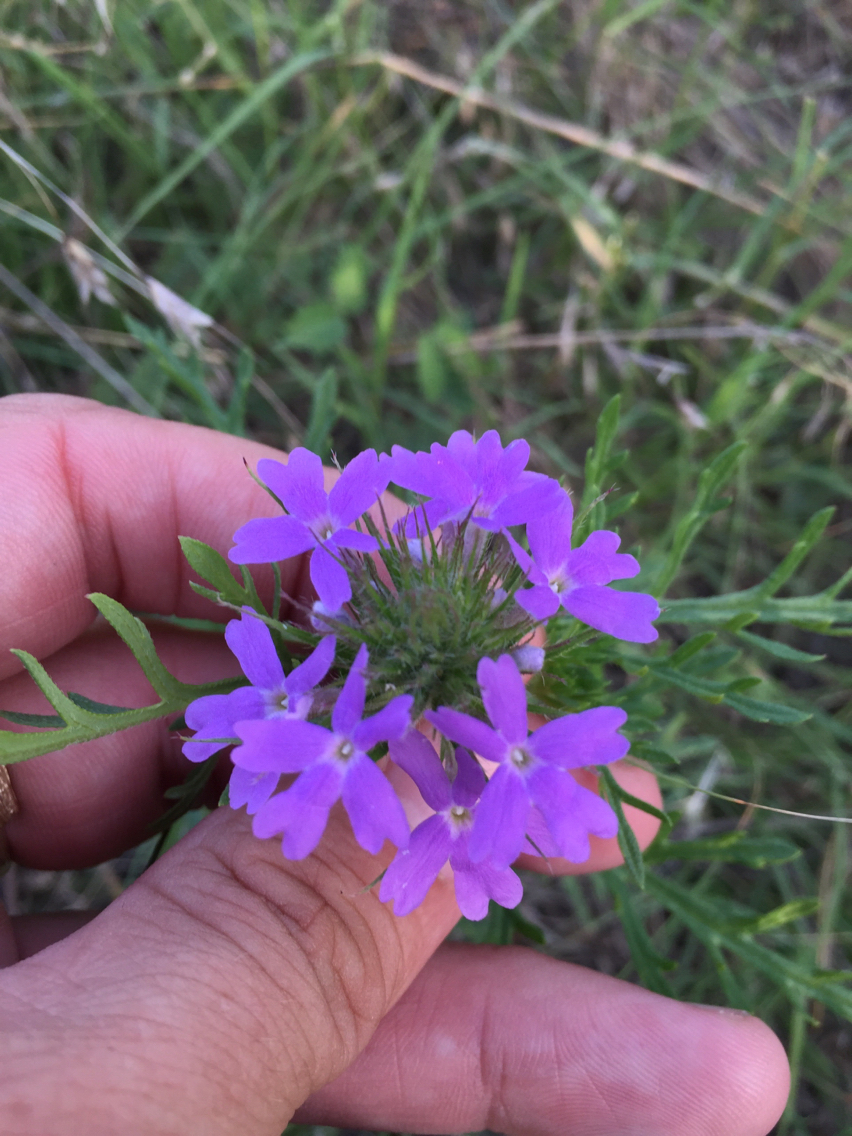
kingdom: Plantae
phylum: Tracheophyta
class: Magnoliopsida
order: Lamiales
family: Verbenaceae
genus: Verbena
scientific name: Verbena bipinnatifida
